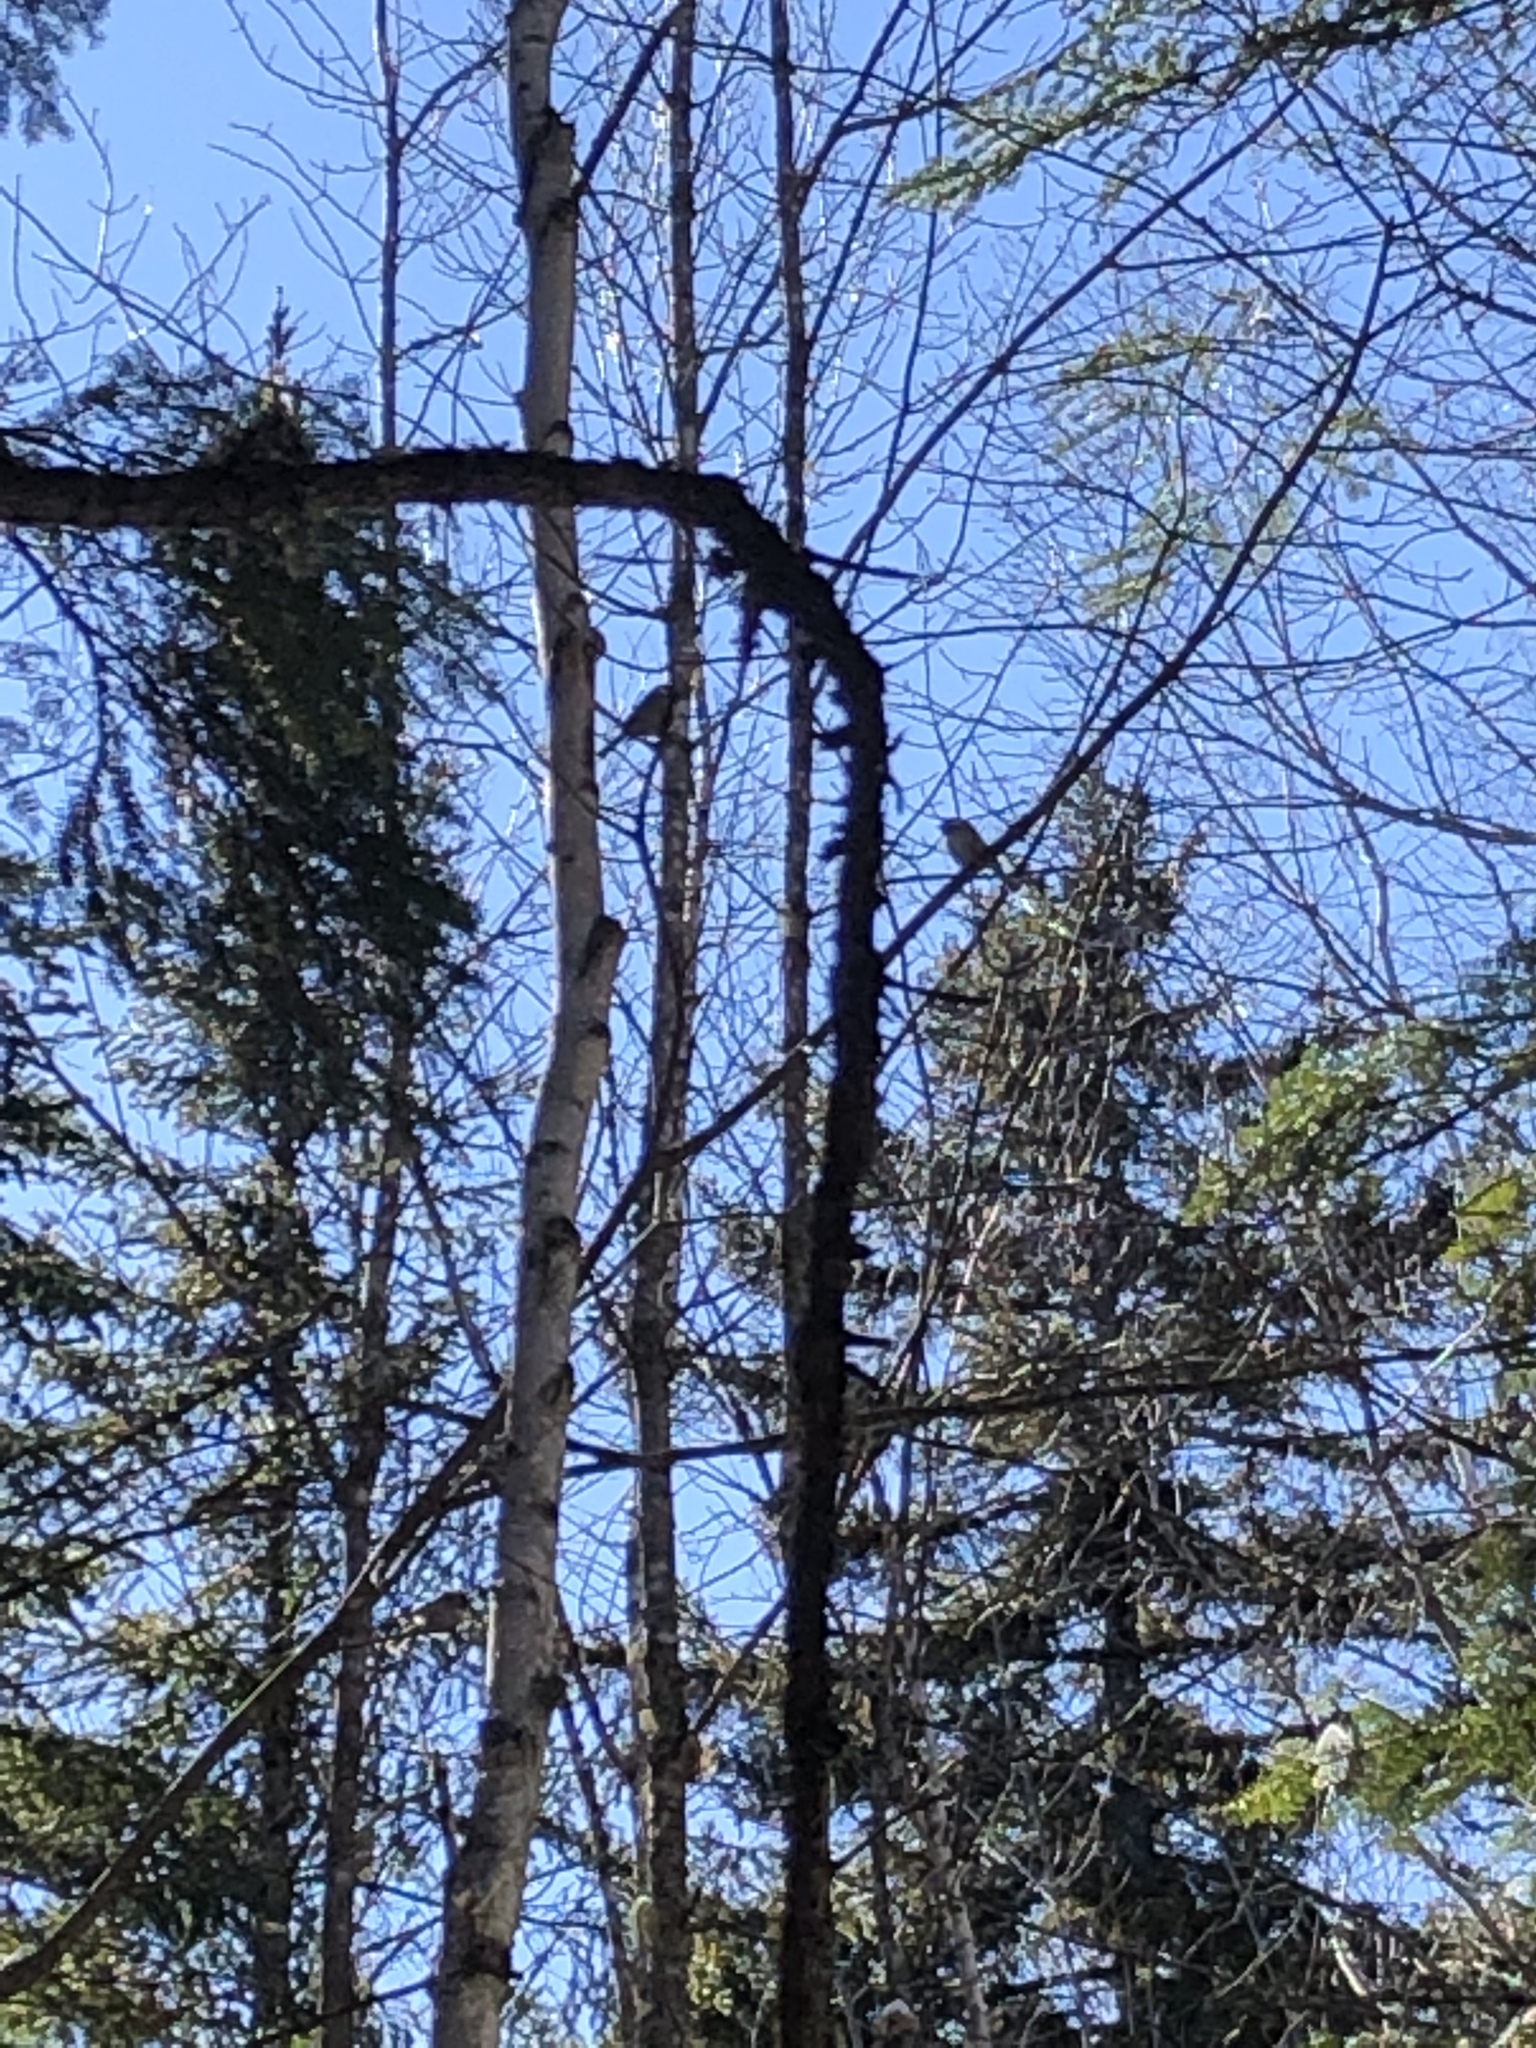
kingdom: Animalia
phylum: Chordata
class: Aves
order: Passeriformes
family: Paridae
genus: Poecile
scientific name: Poecile atricapillus
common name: Black-capped chickadee
